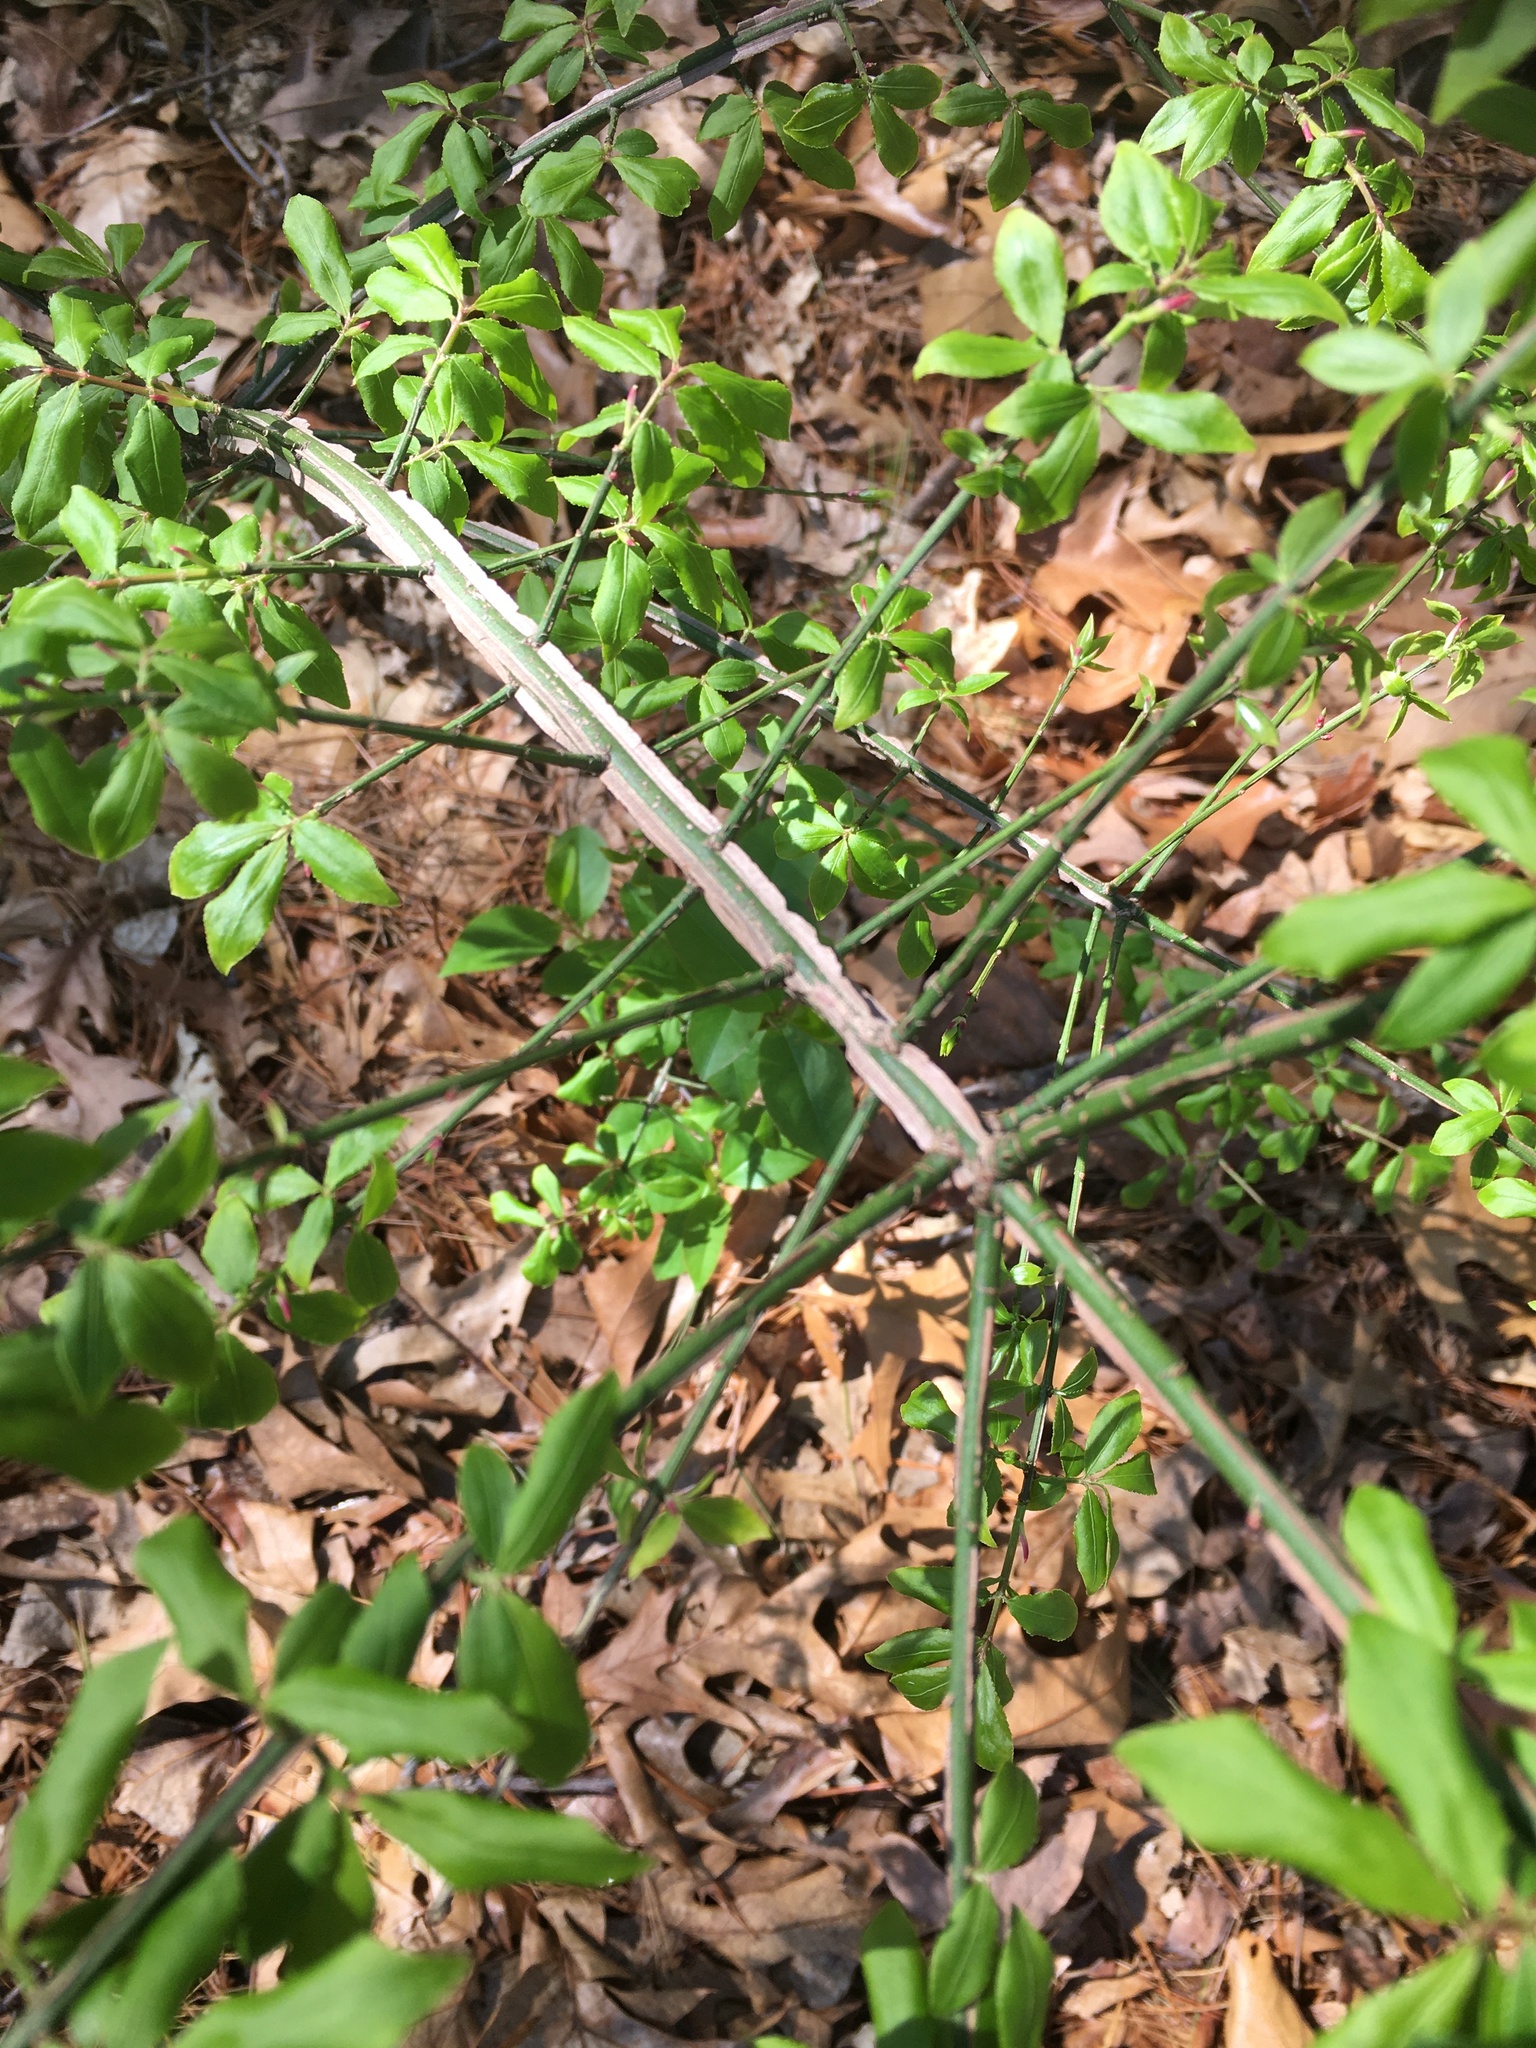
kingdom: Plantae
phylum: Tracheophyta
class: Magnoliopsida
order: Celastrales
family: Celastraceae
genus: Euonymus
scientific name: Euonymus alatus
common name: Winged euonymus
